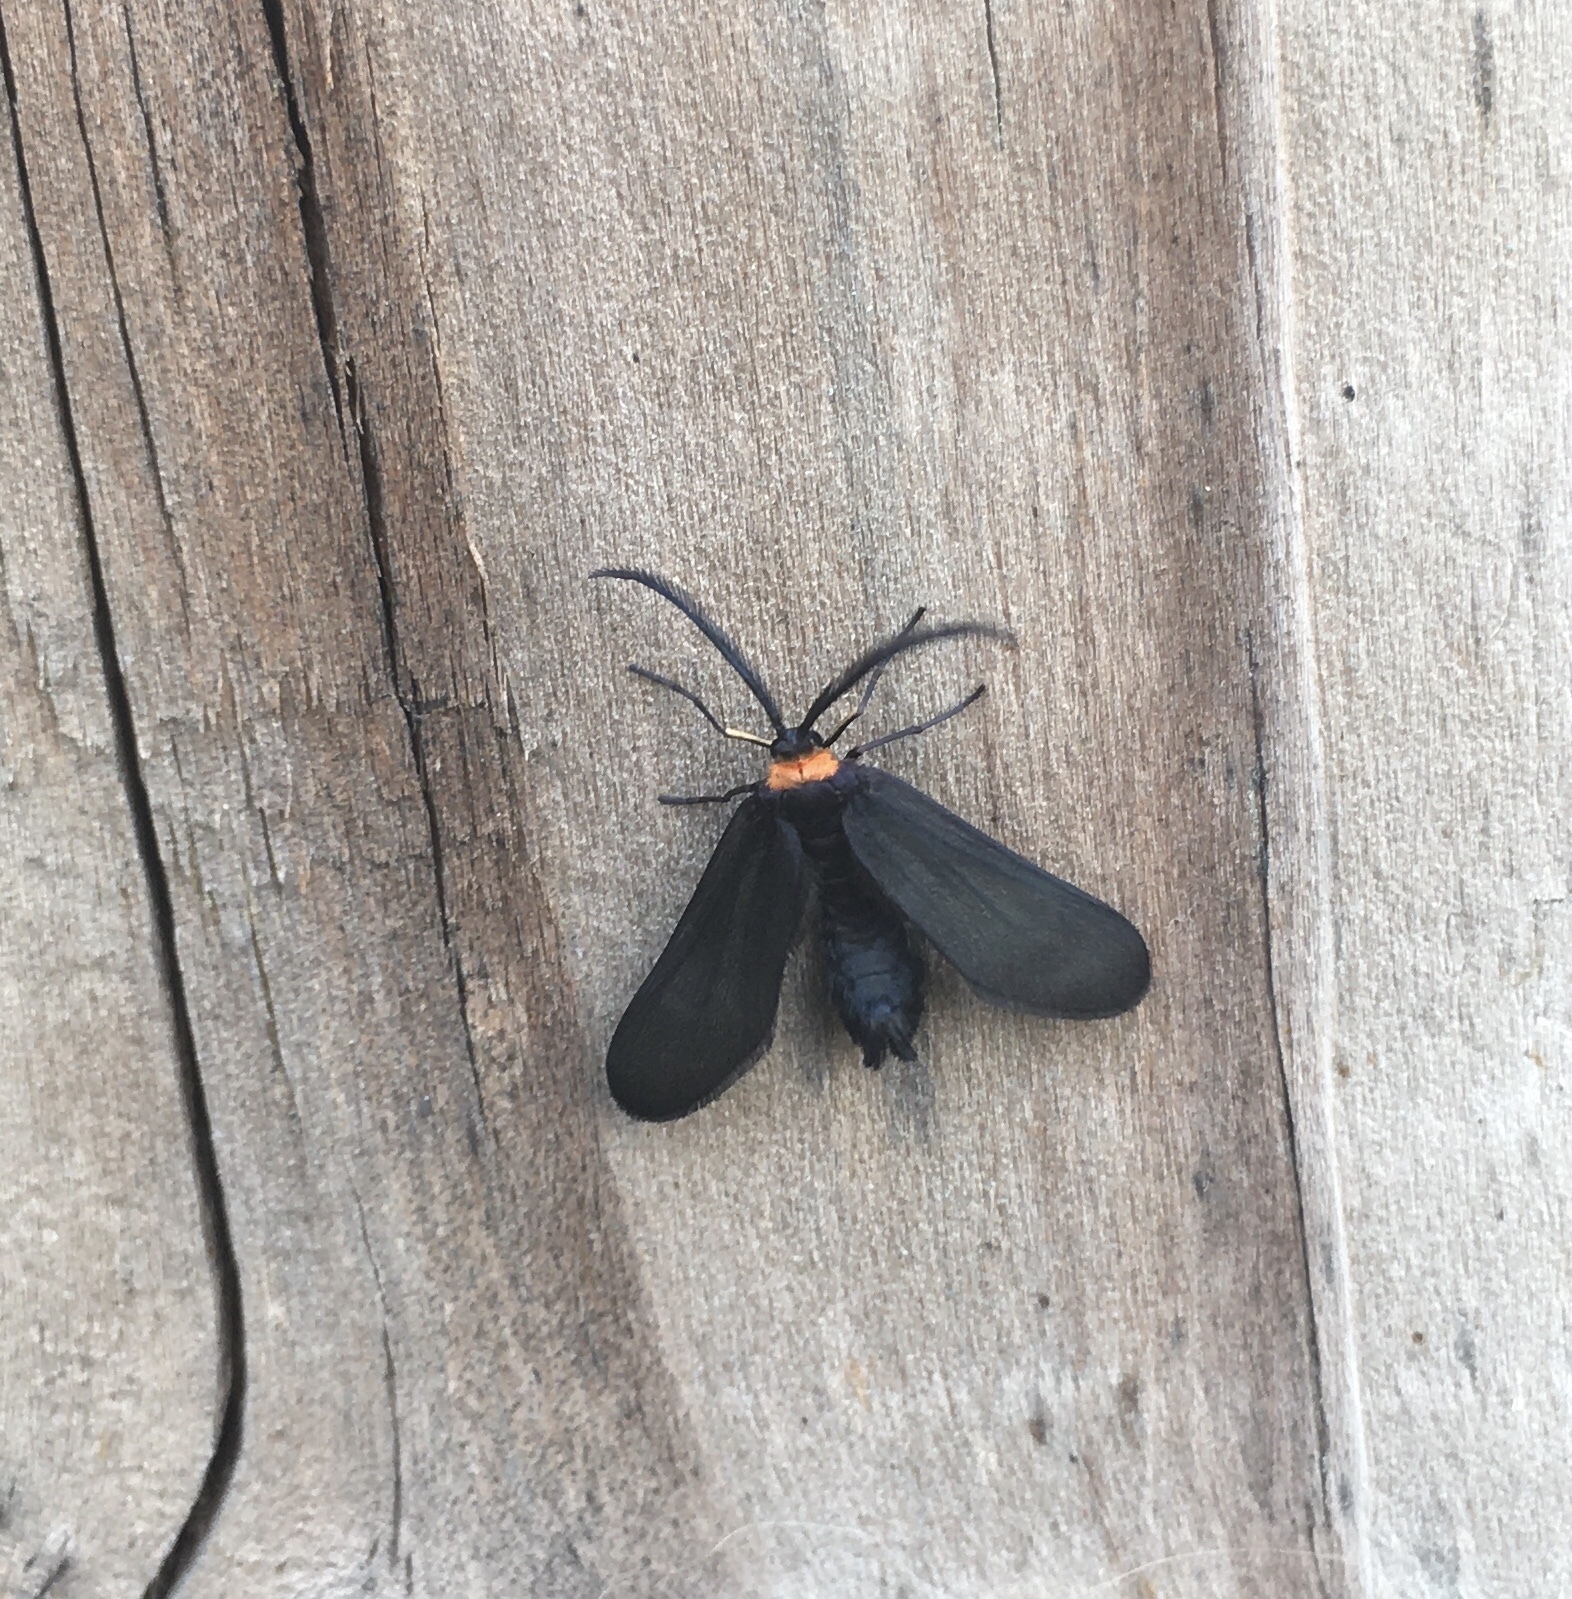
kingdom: Animalia
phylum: Arthropoda
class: Insecta
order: Lepidoptera
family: Zygaenidae
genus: Harrisina
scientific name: Harrisina americana
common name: Grapeleaf skeletonizer moth
